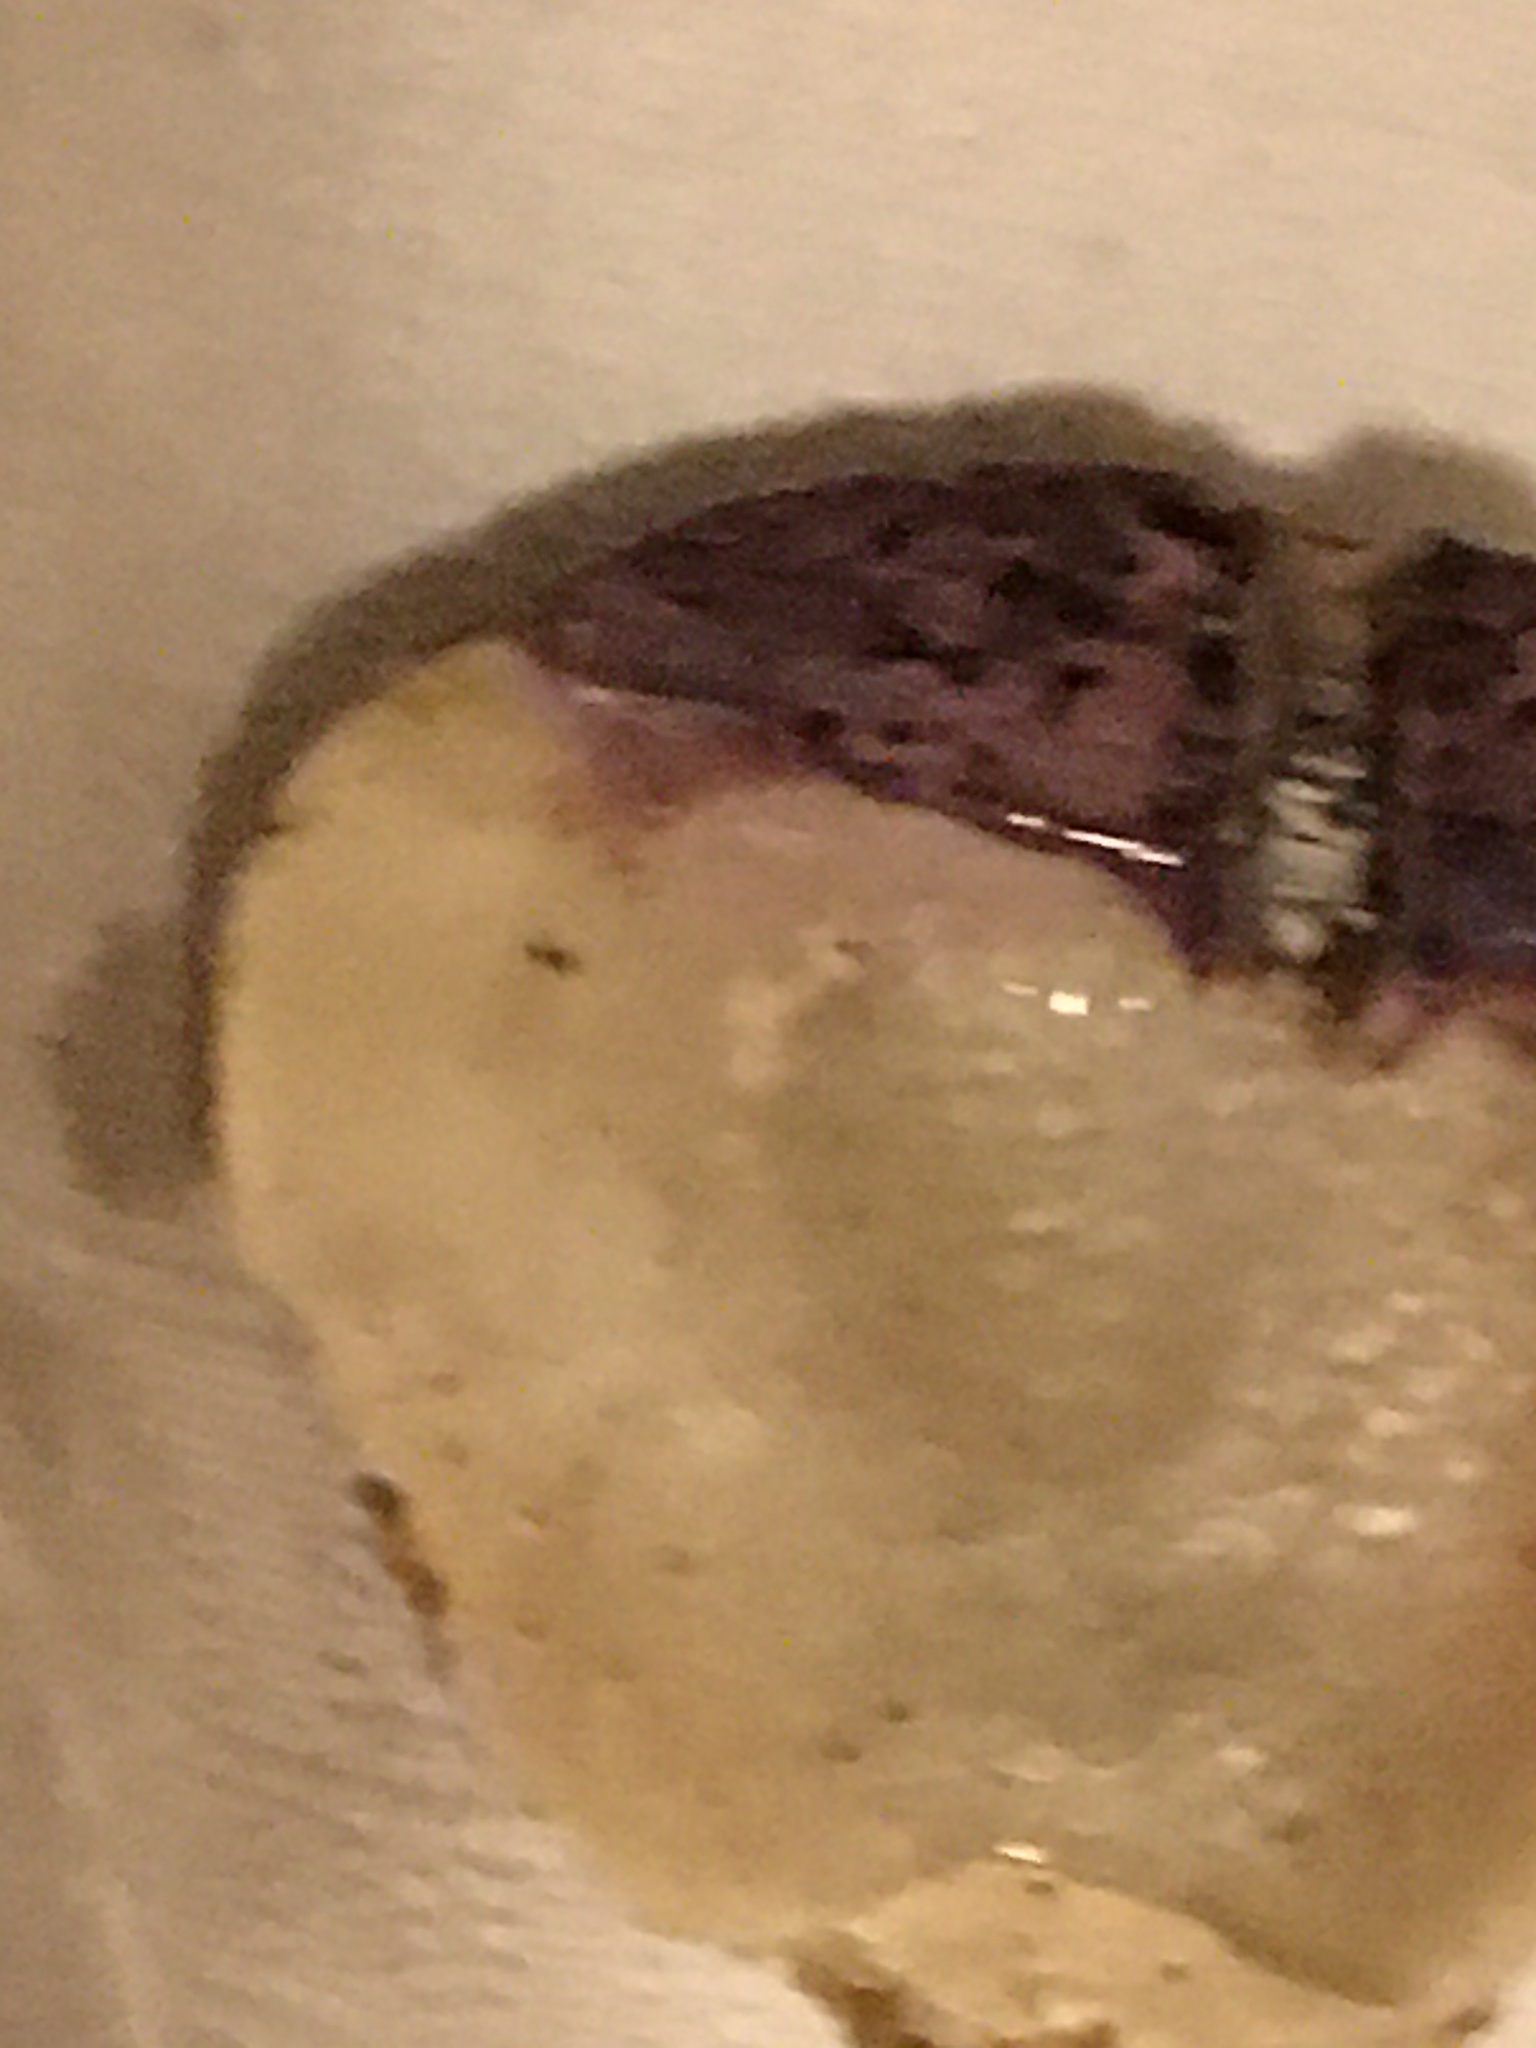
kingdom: Animalia
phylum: Mollusca
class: Bivalvia
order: Pectinida
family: Pectinidae
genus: Crassadoma
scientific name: Crassadoma gigantea
